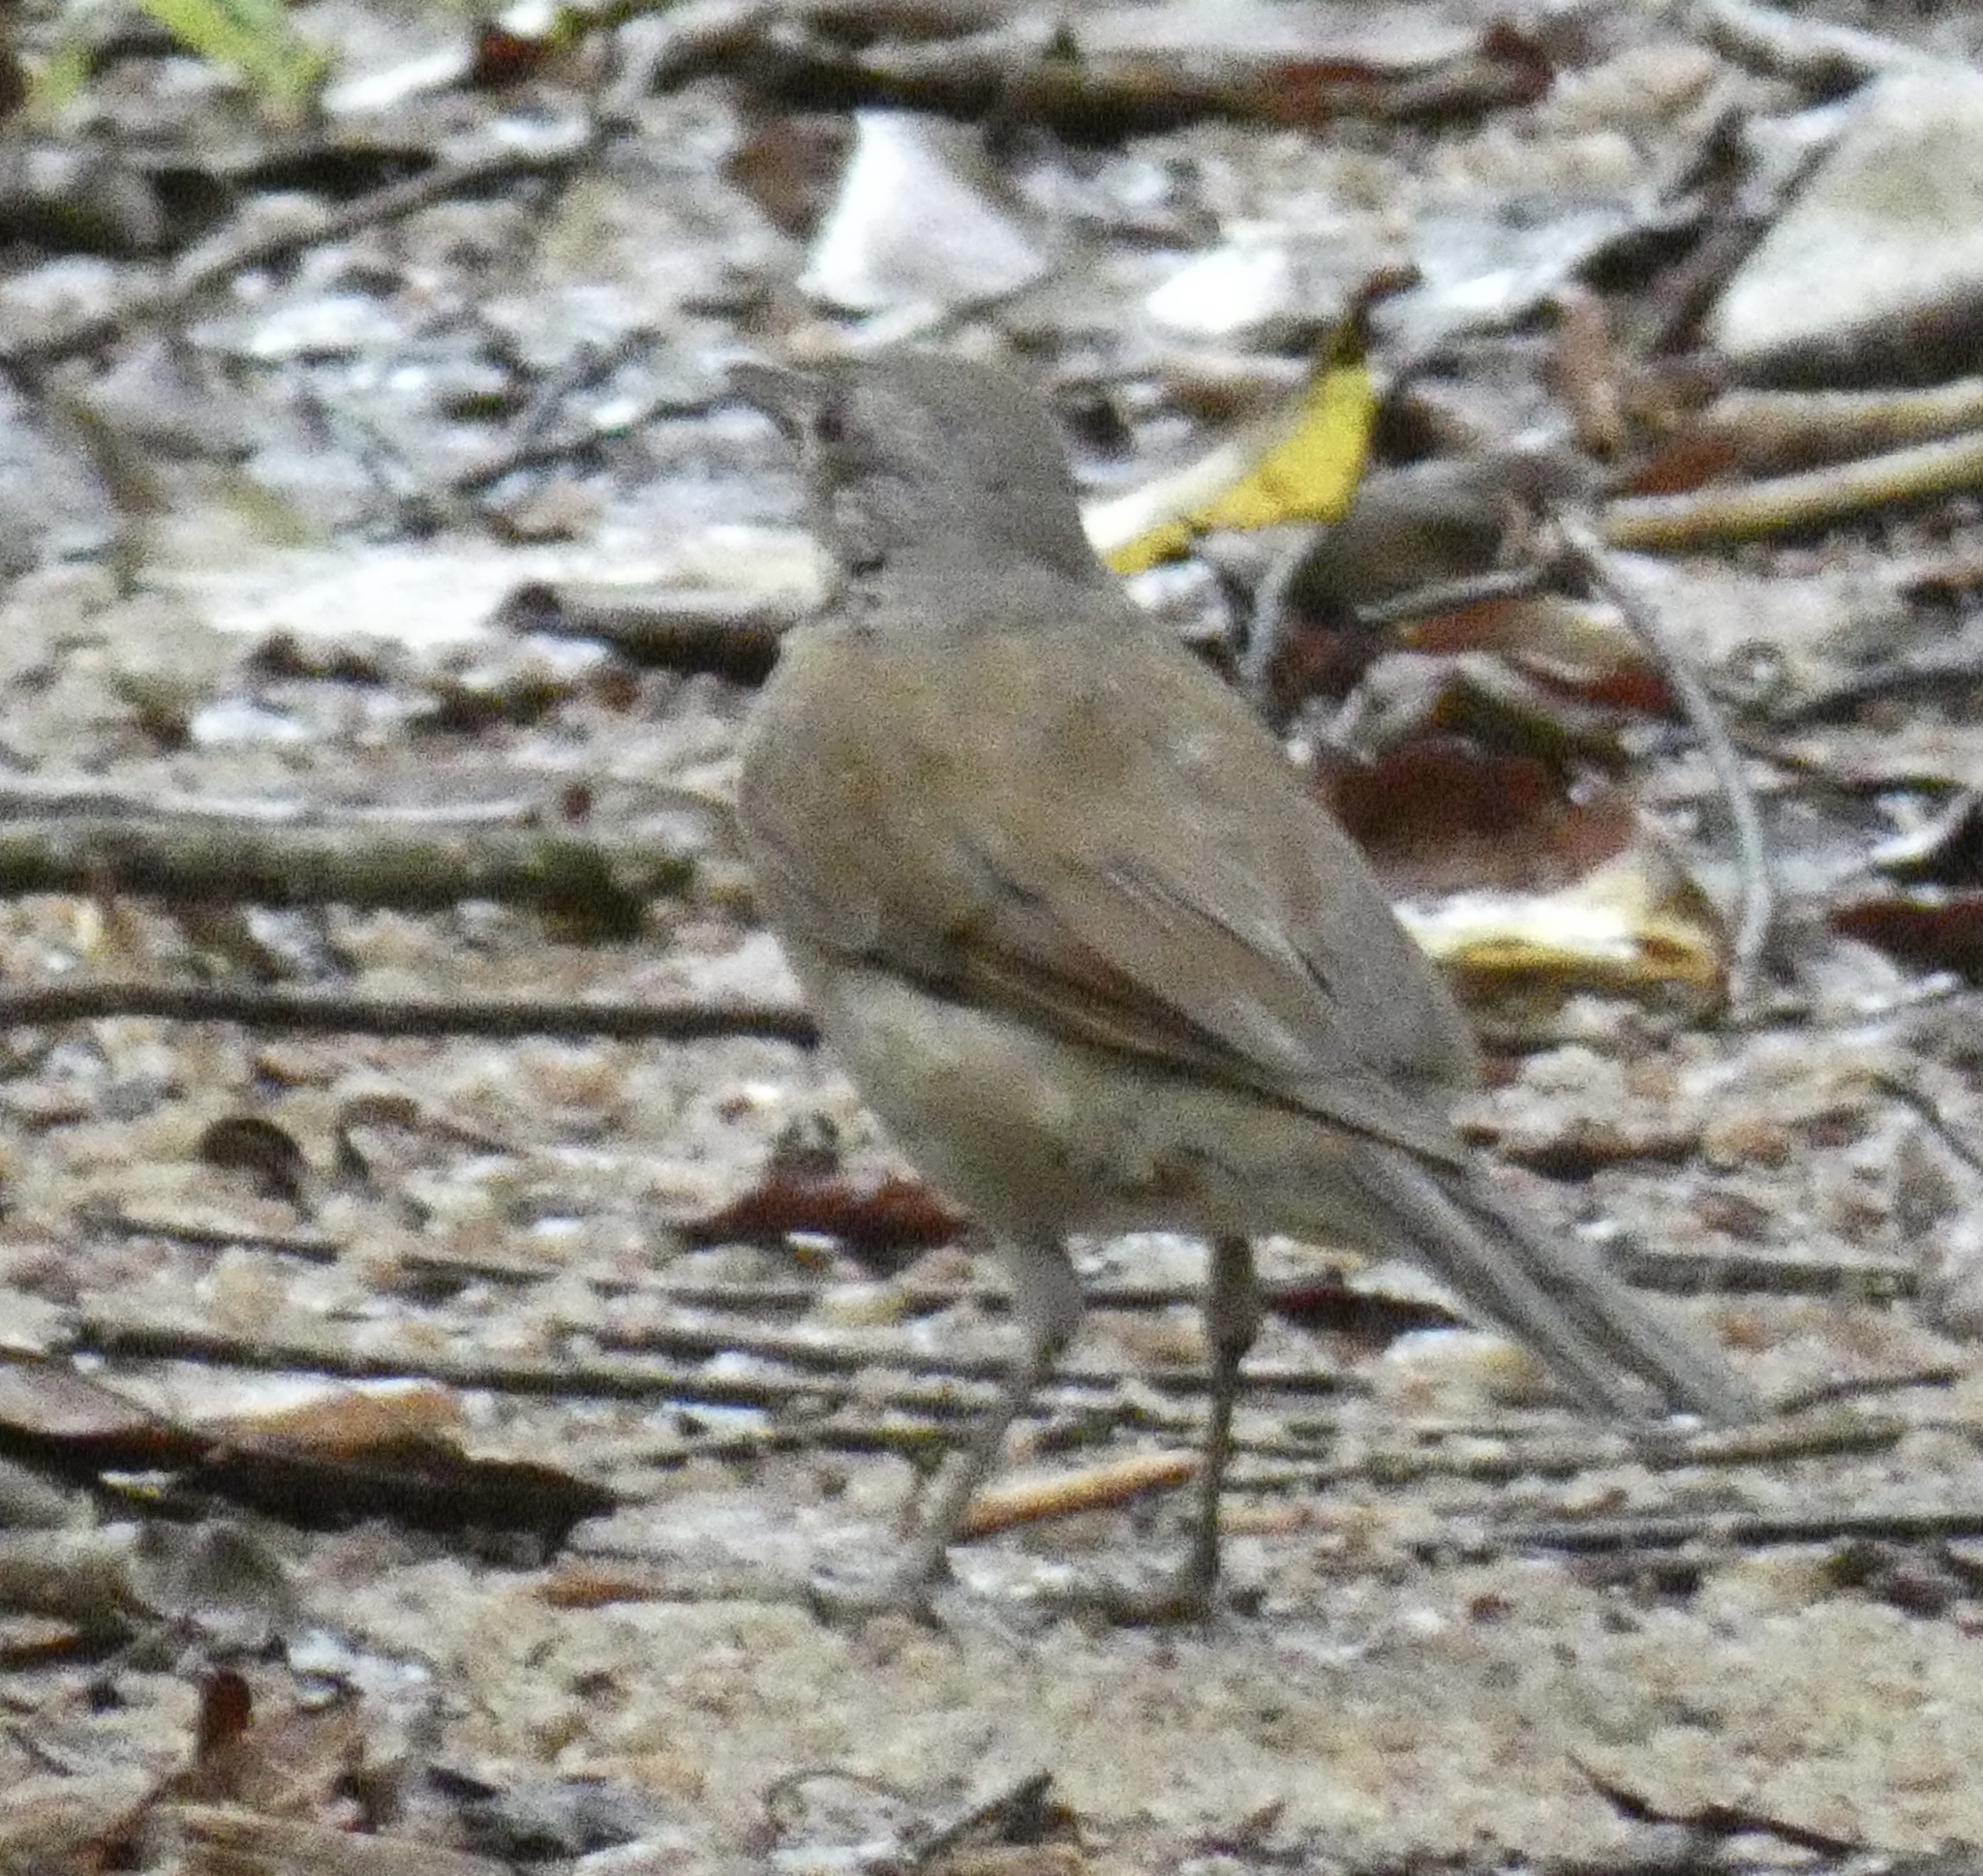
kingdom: Animalia
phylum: Chordata
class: Aves
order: Passeriformes
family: Turdidae
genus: Turdus
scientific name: Turdus leucomelas
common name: Pale-breasted thrush
